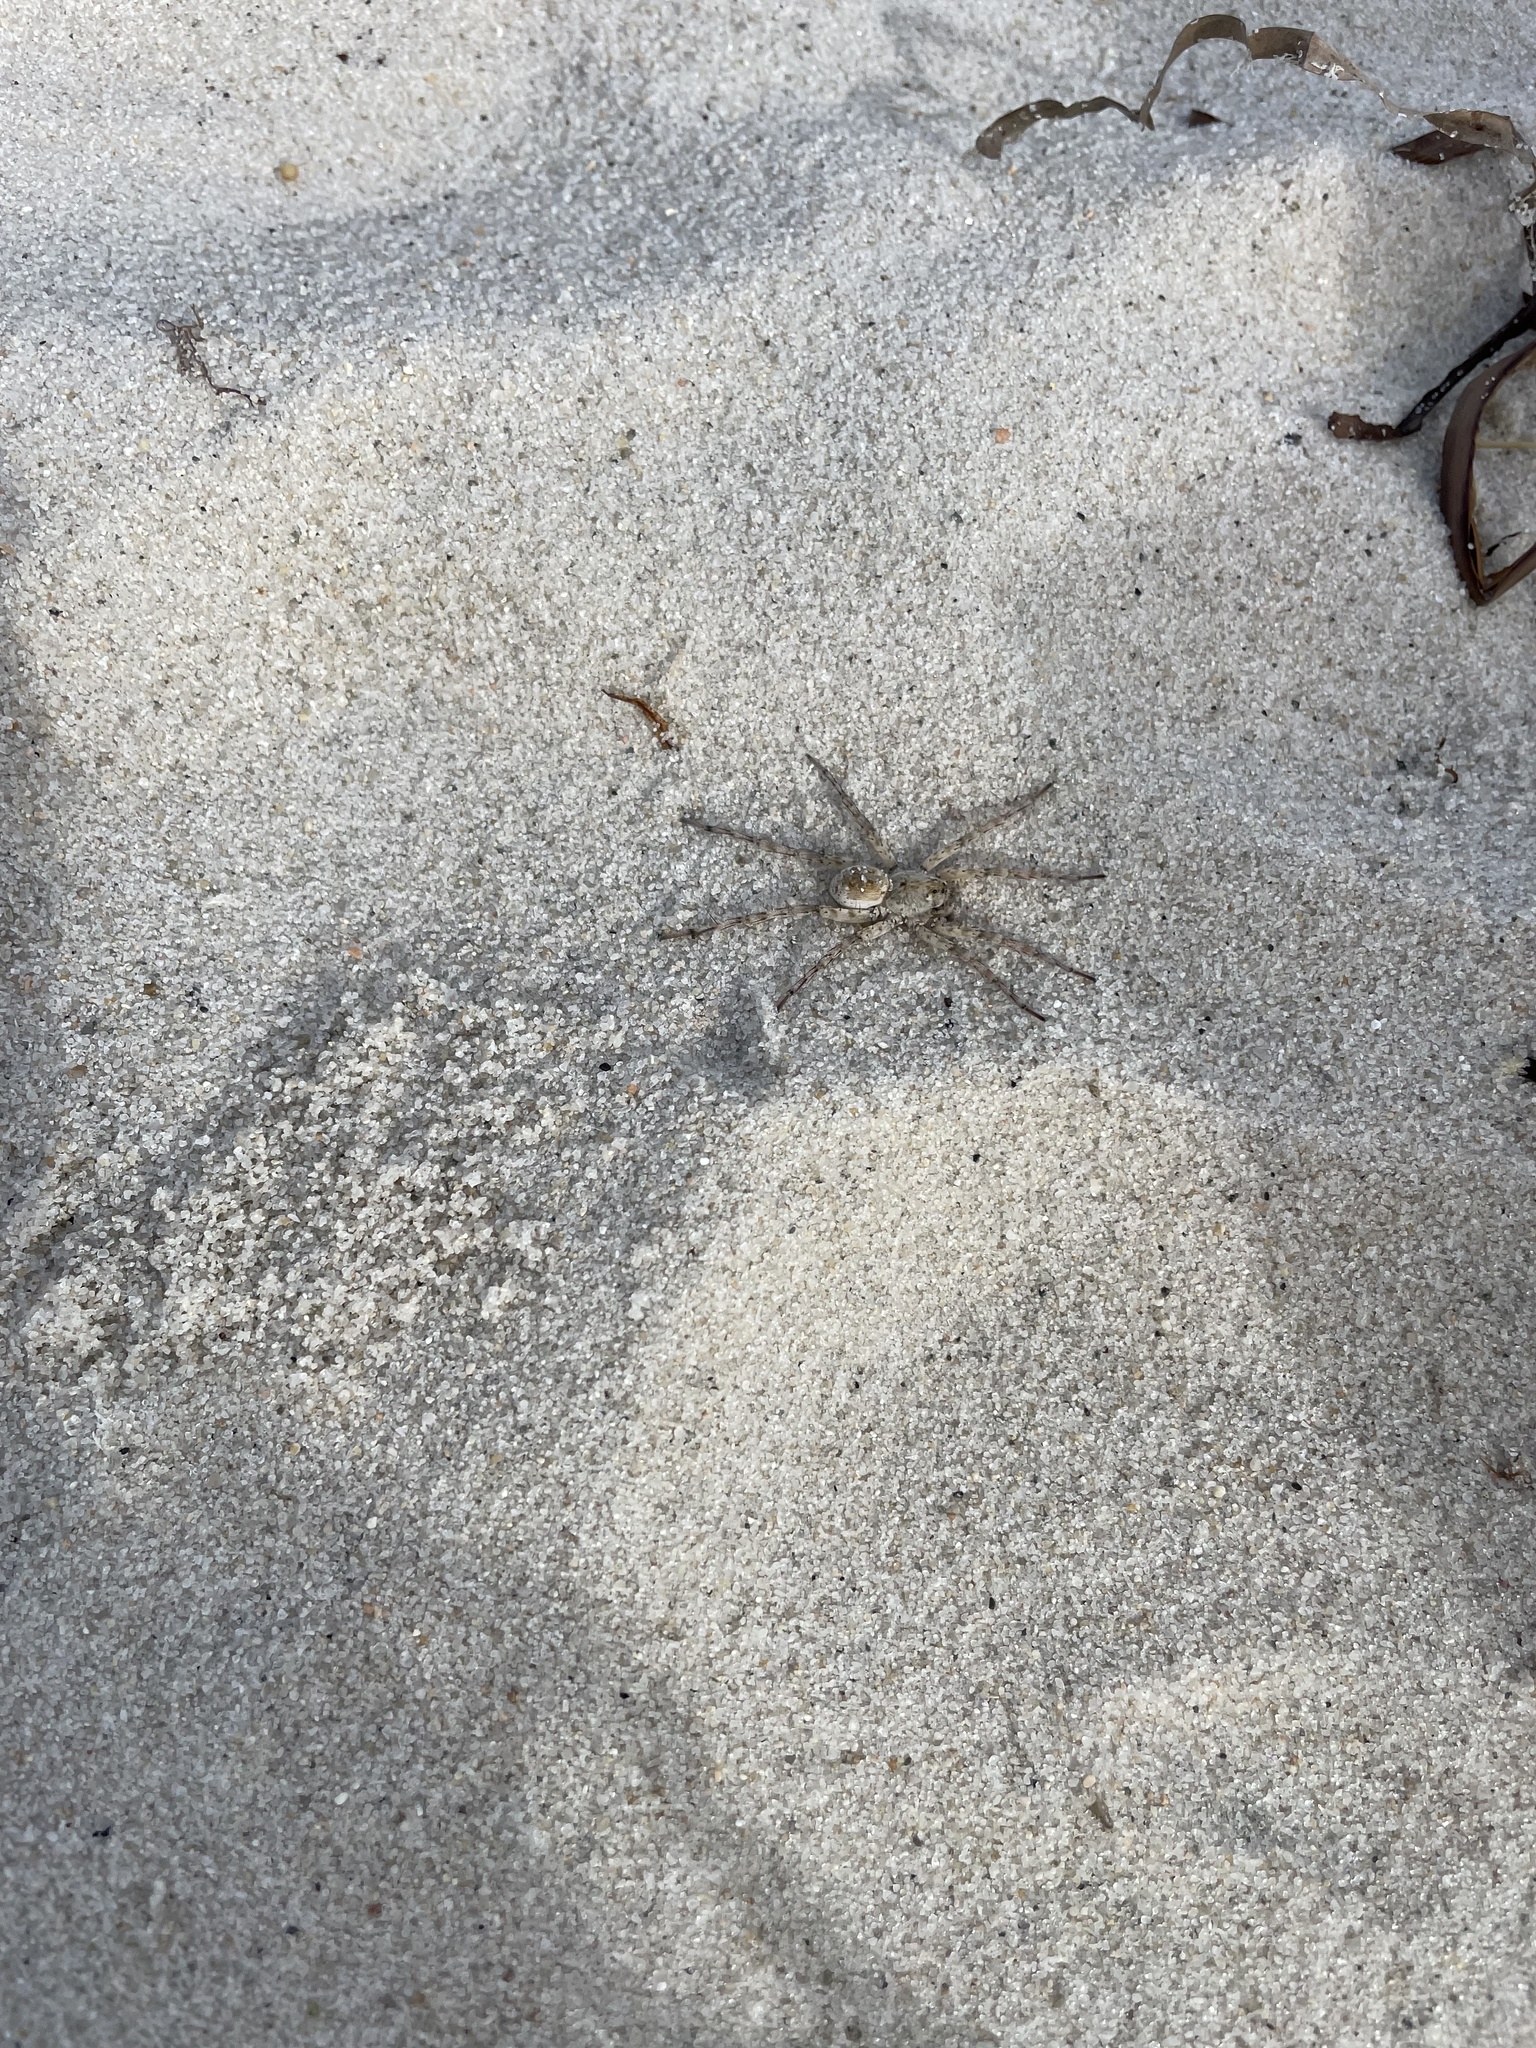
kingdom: Animalia
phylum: Arthropoda
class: Arachnida
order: Araneae
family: Lycosidae
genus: Arctosa
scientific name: Arctosa littoralis
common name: Wolf spiders
